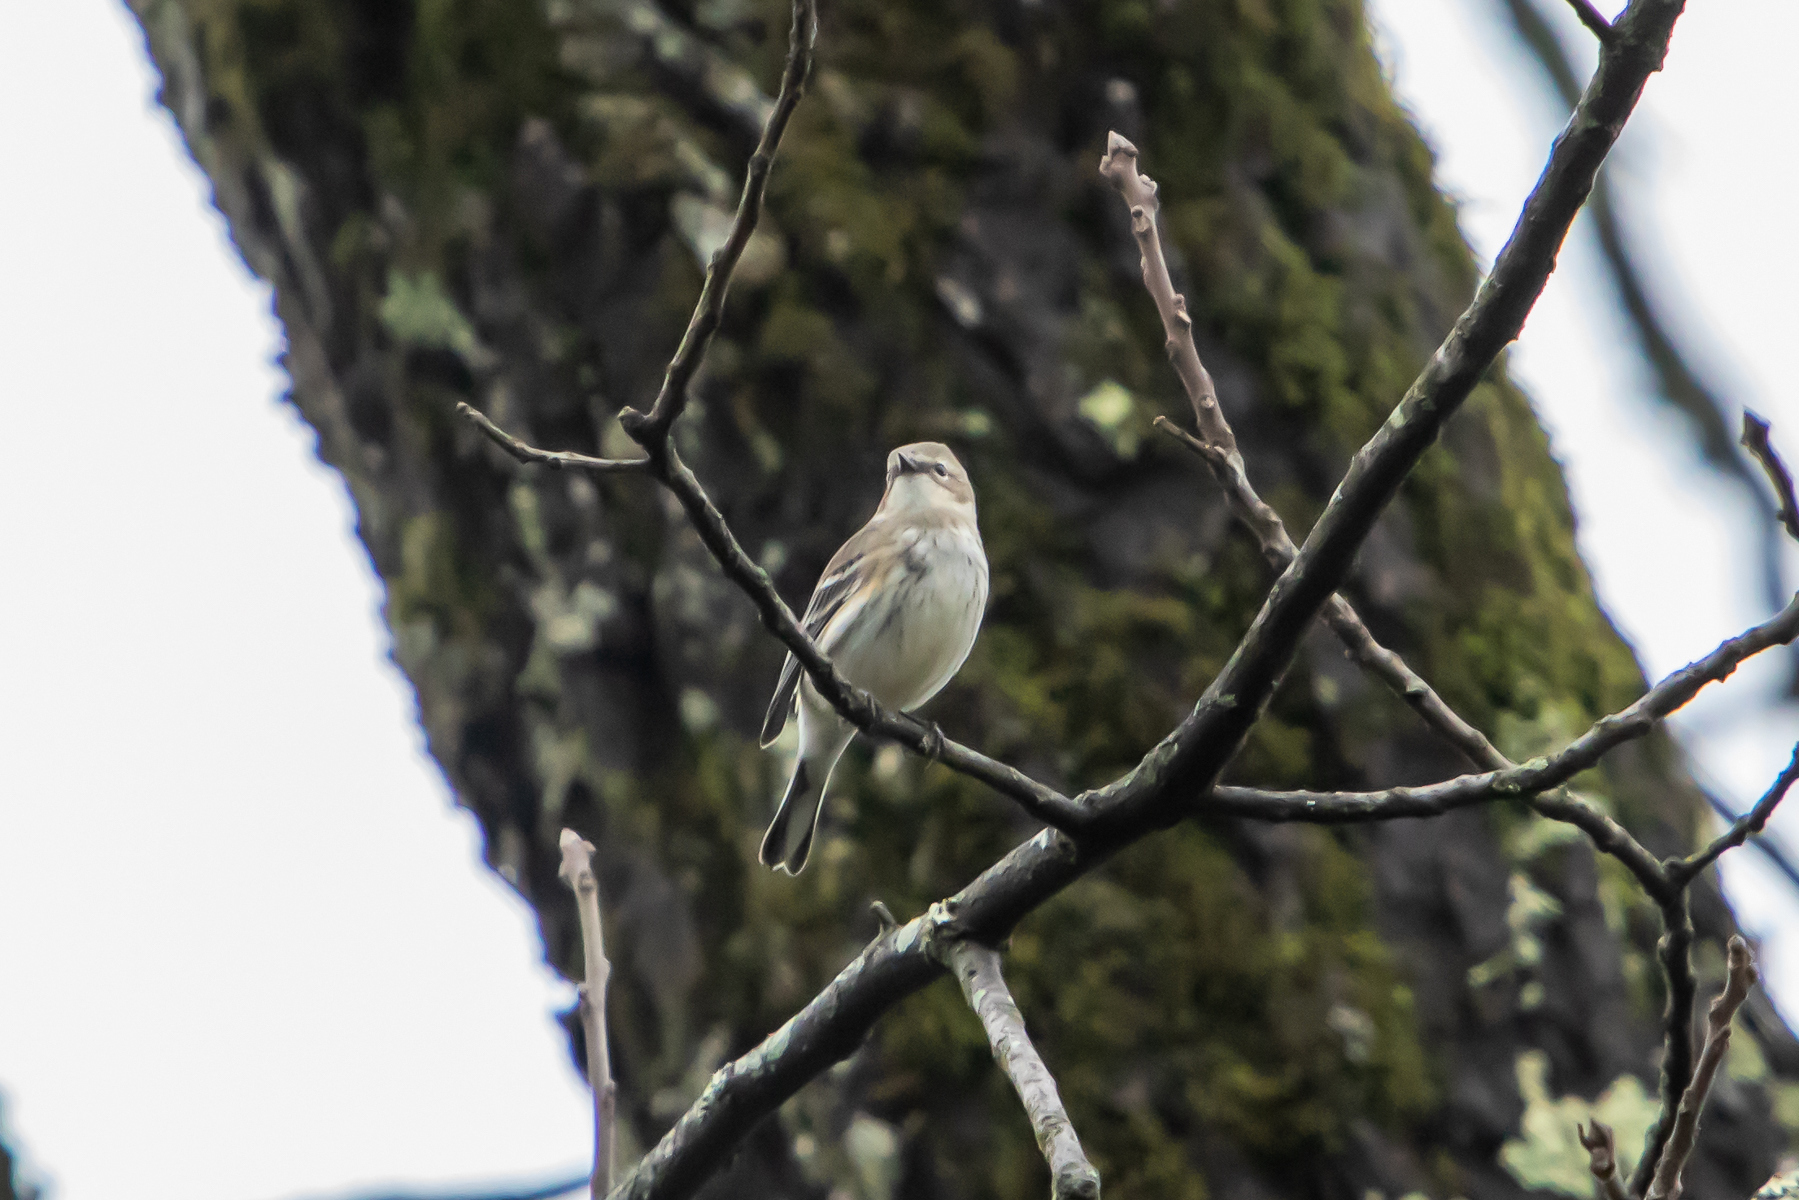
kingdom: Animalia
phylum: Chordata
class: Aves
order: Passeriformes
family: Parulidae
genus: Setophaga
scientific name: Setophaga coronata
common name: Myrtle warbler
